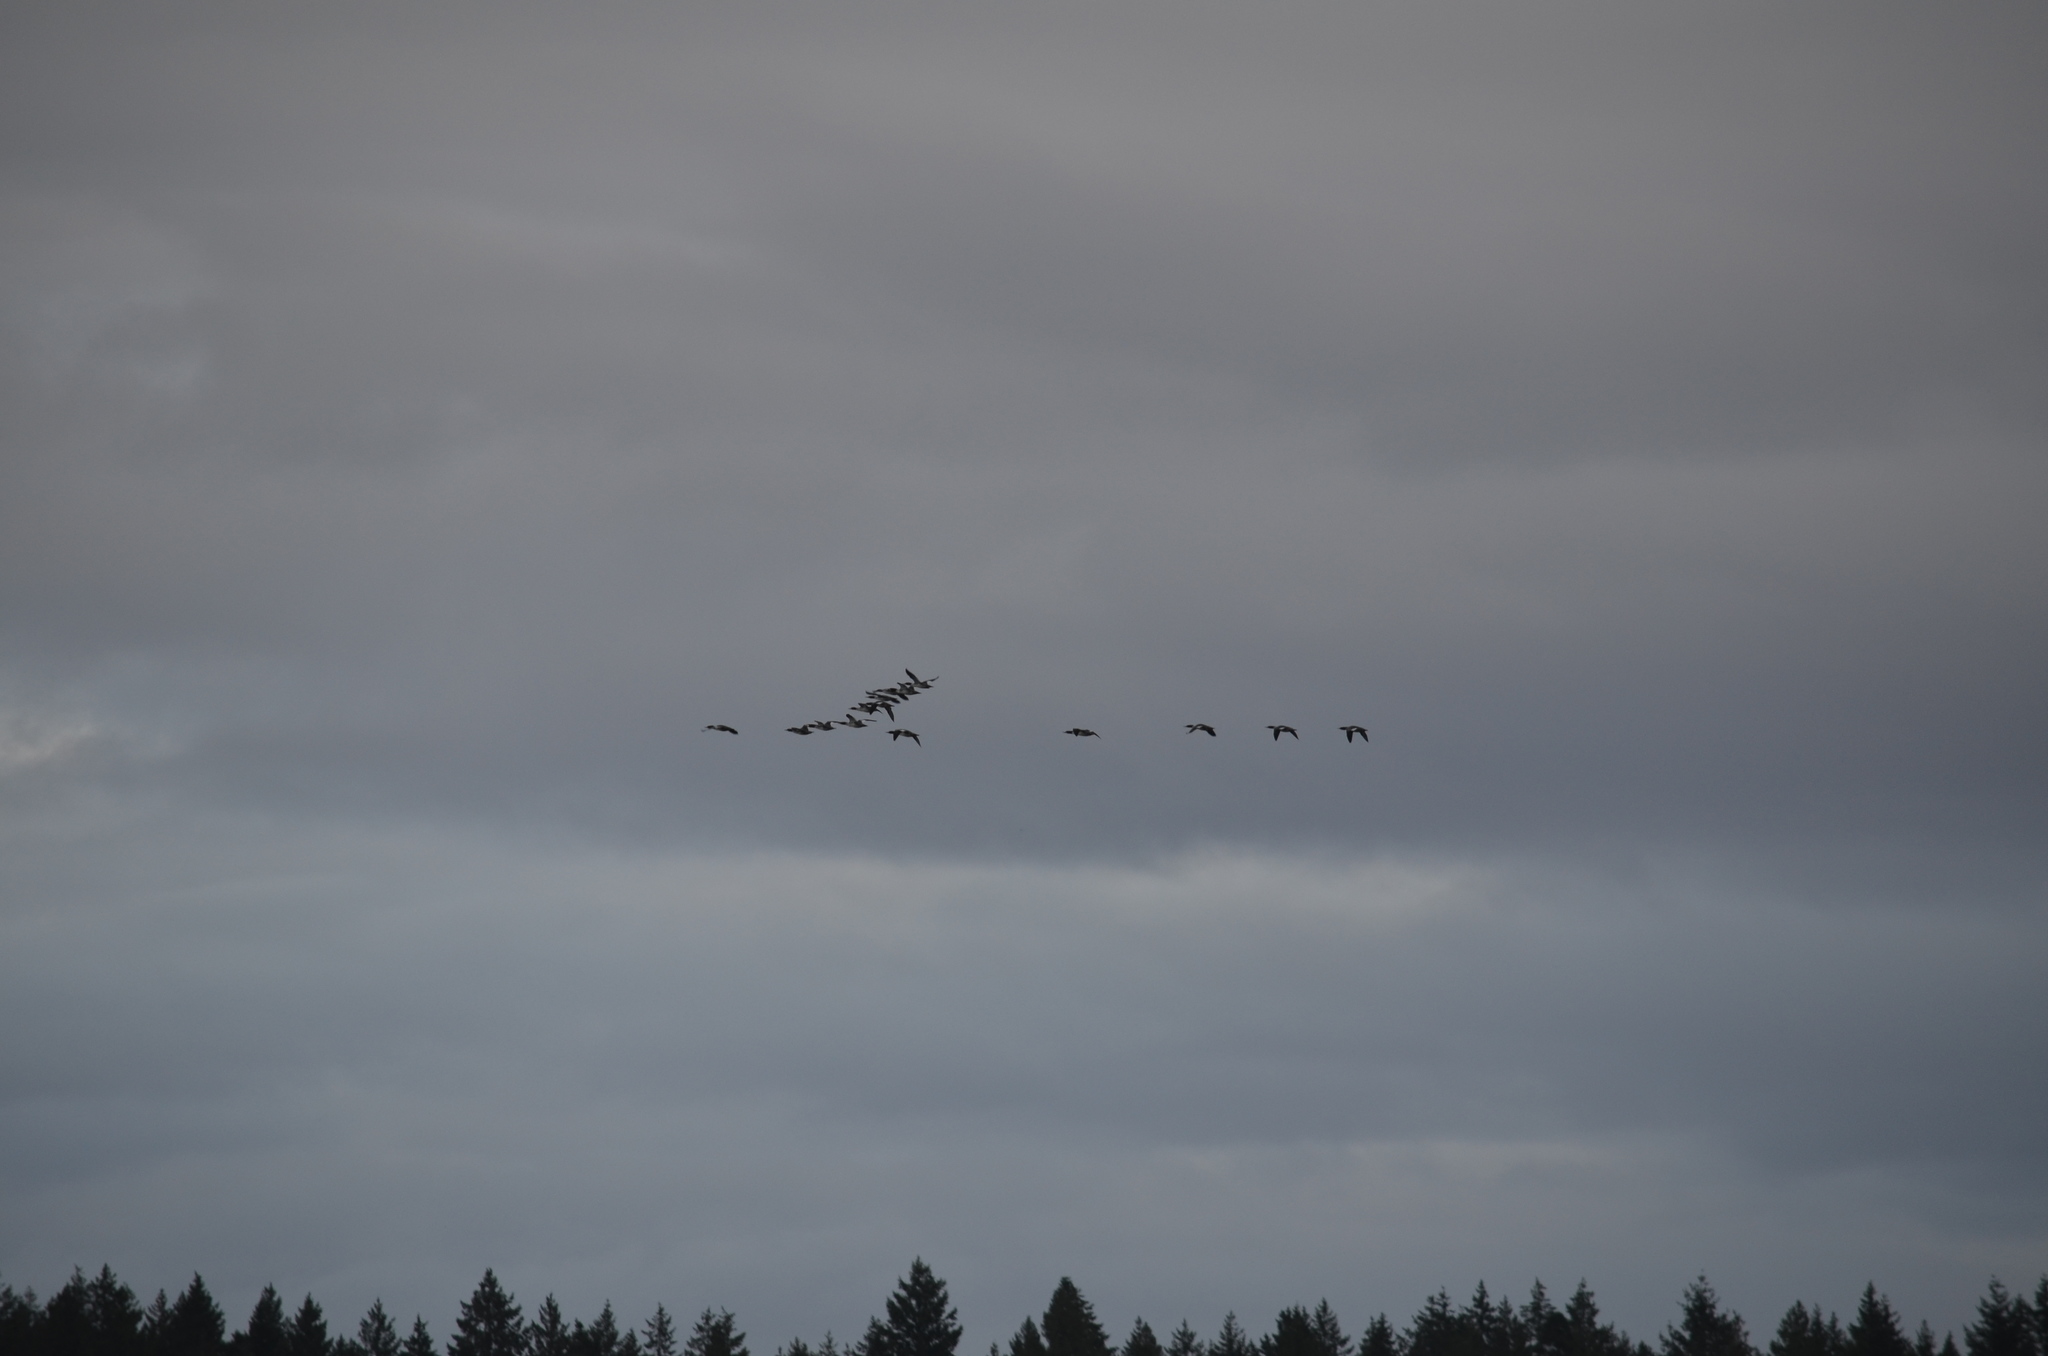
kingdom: Animalia
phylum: Chordata
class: Aves
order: Anseriformes
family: Anatidae
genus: Mergus
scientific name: Mergus merganser
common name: Common merganser
